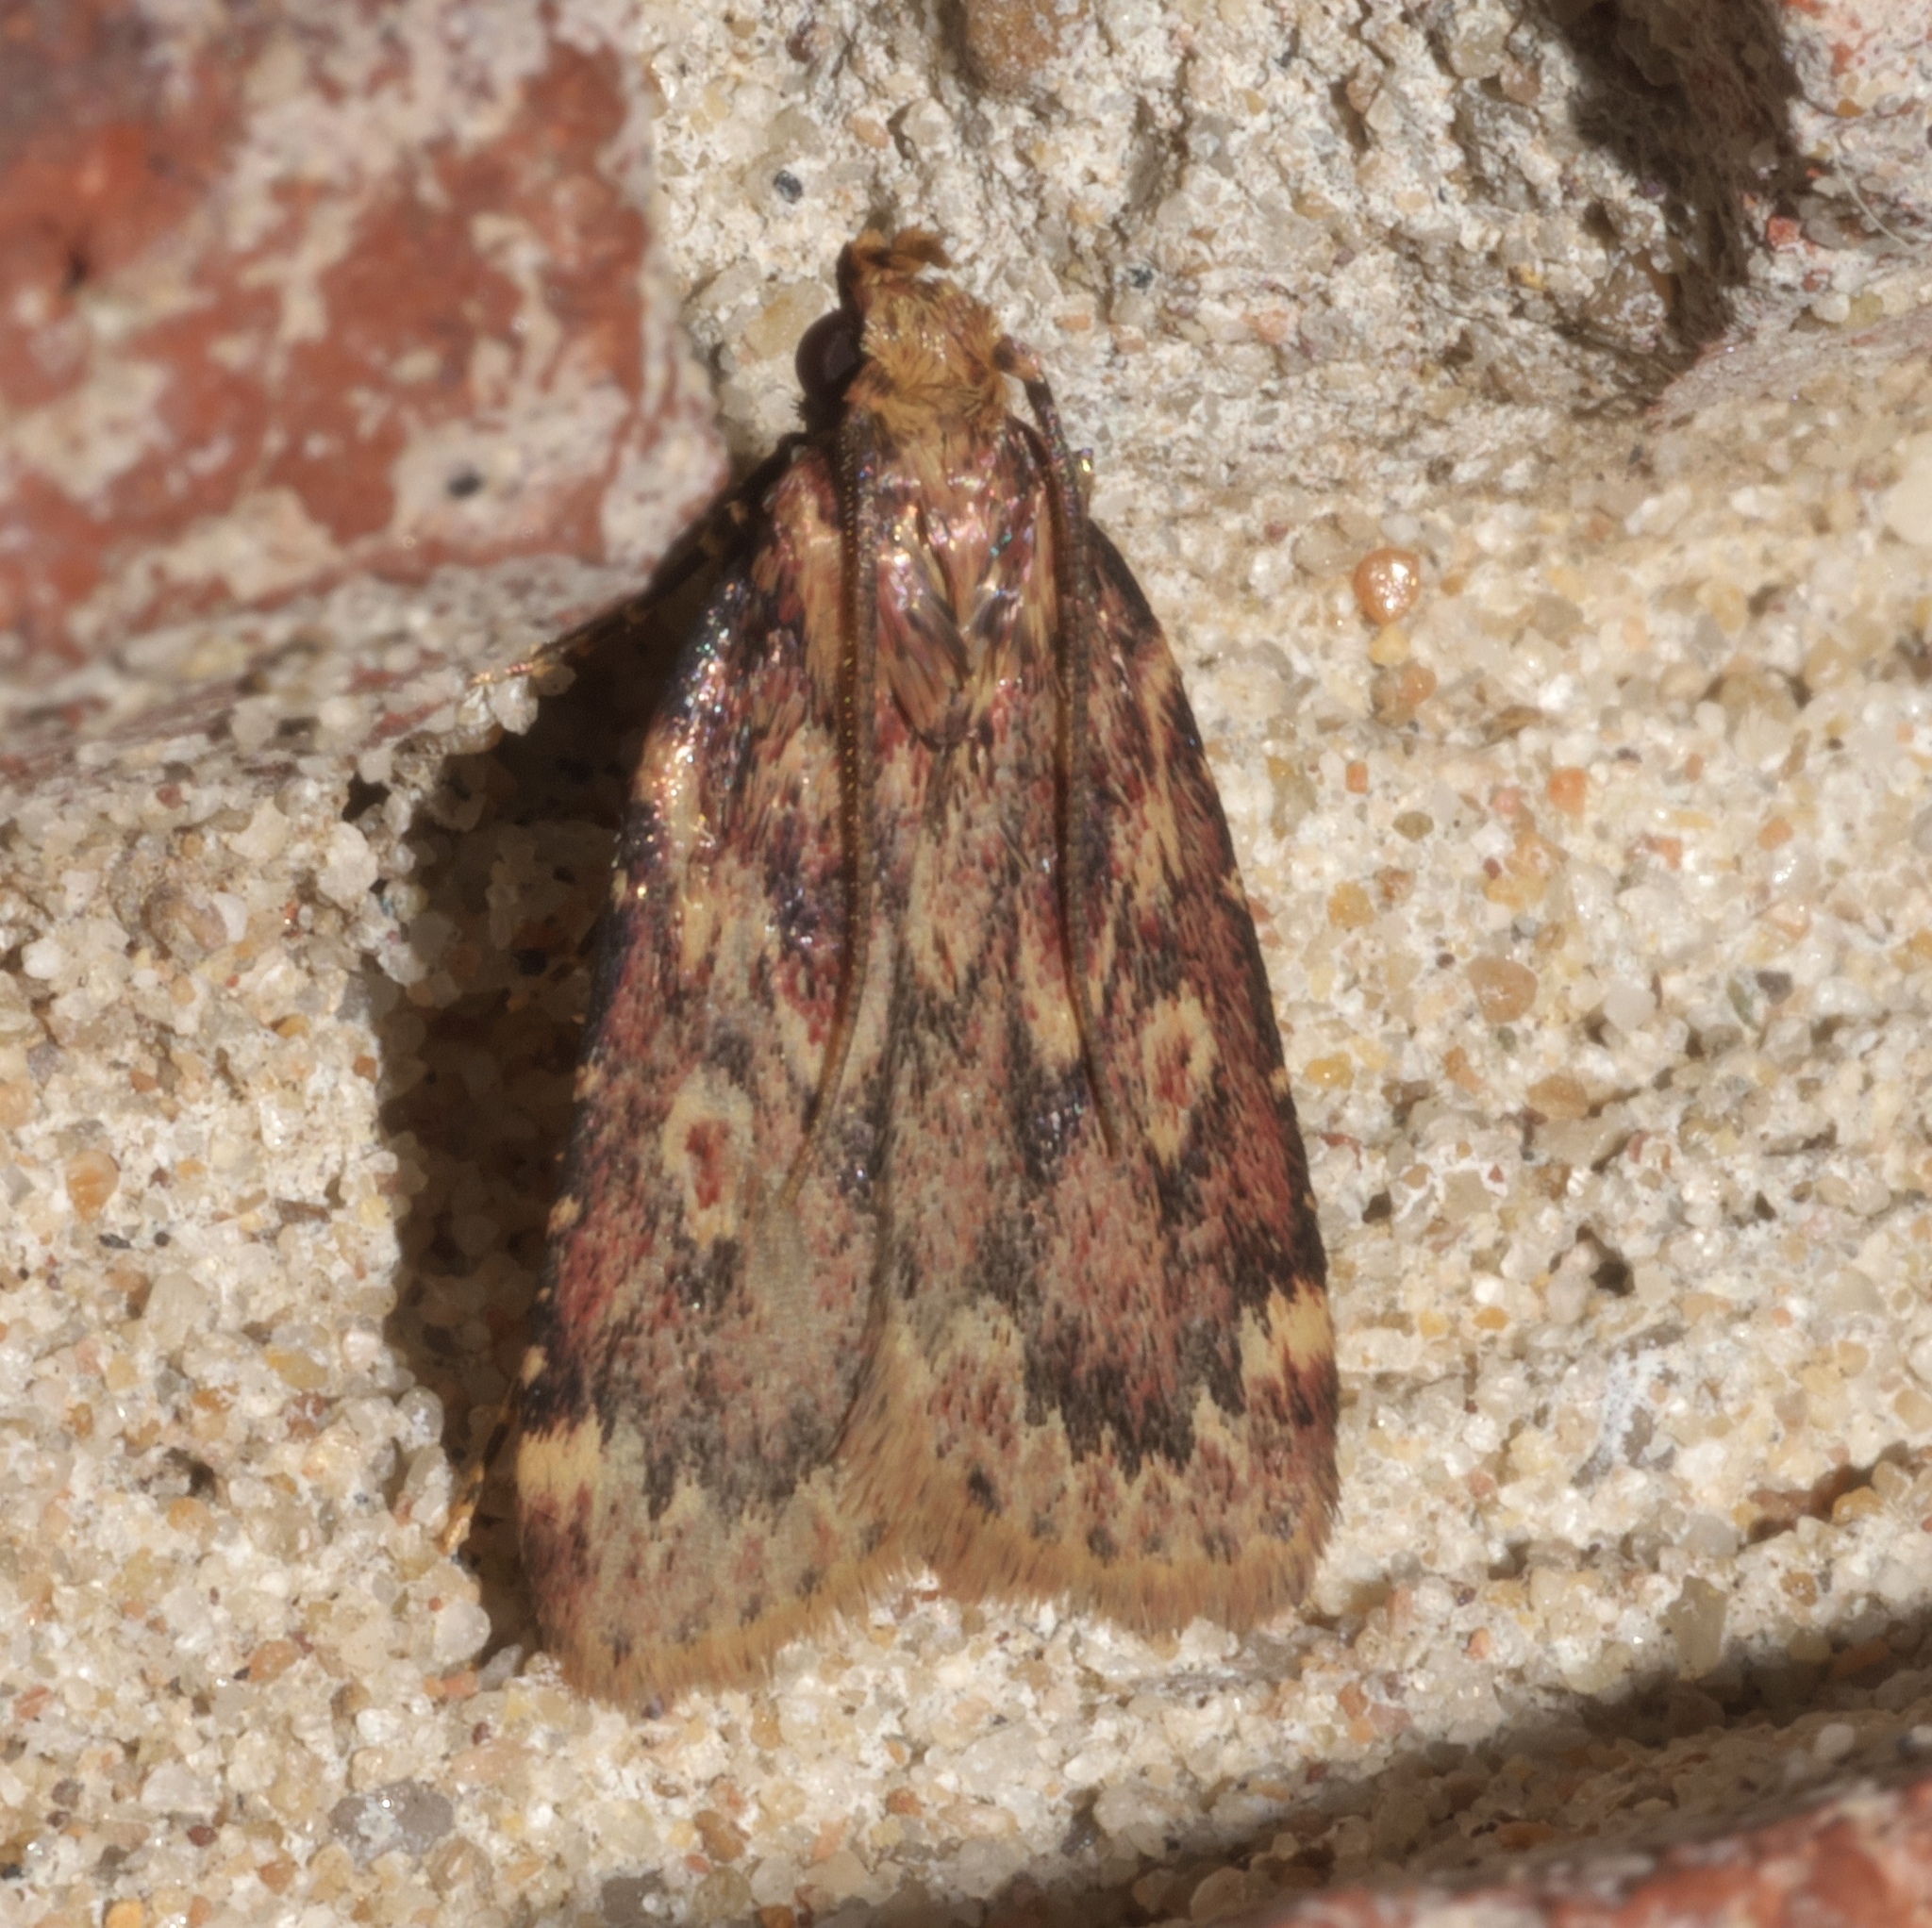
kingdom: Animalia
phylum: Arthropoda
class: Insecta
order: Lepidoptera
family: Pyralidae
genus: Aglossa
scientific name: Aglossa cuprina
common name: Grease moth
